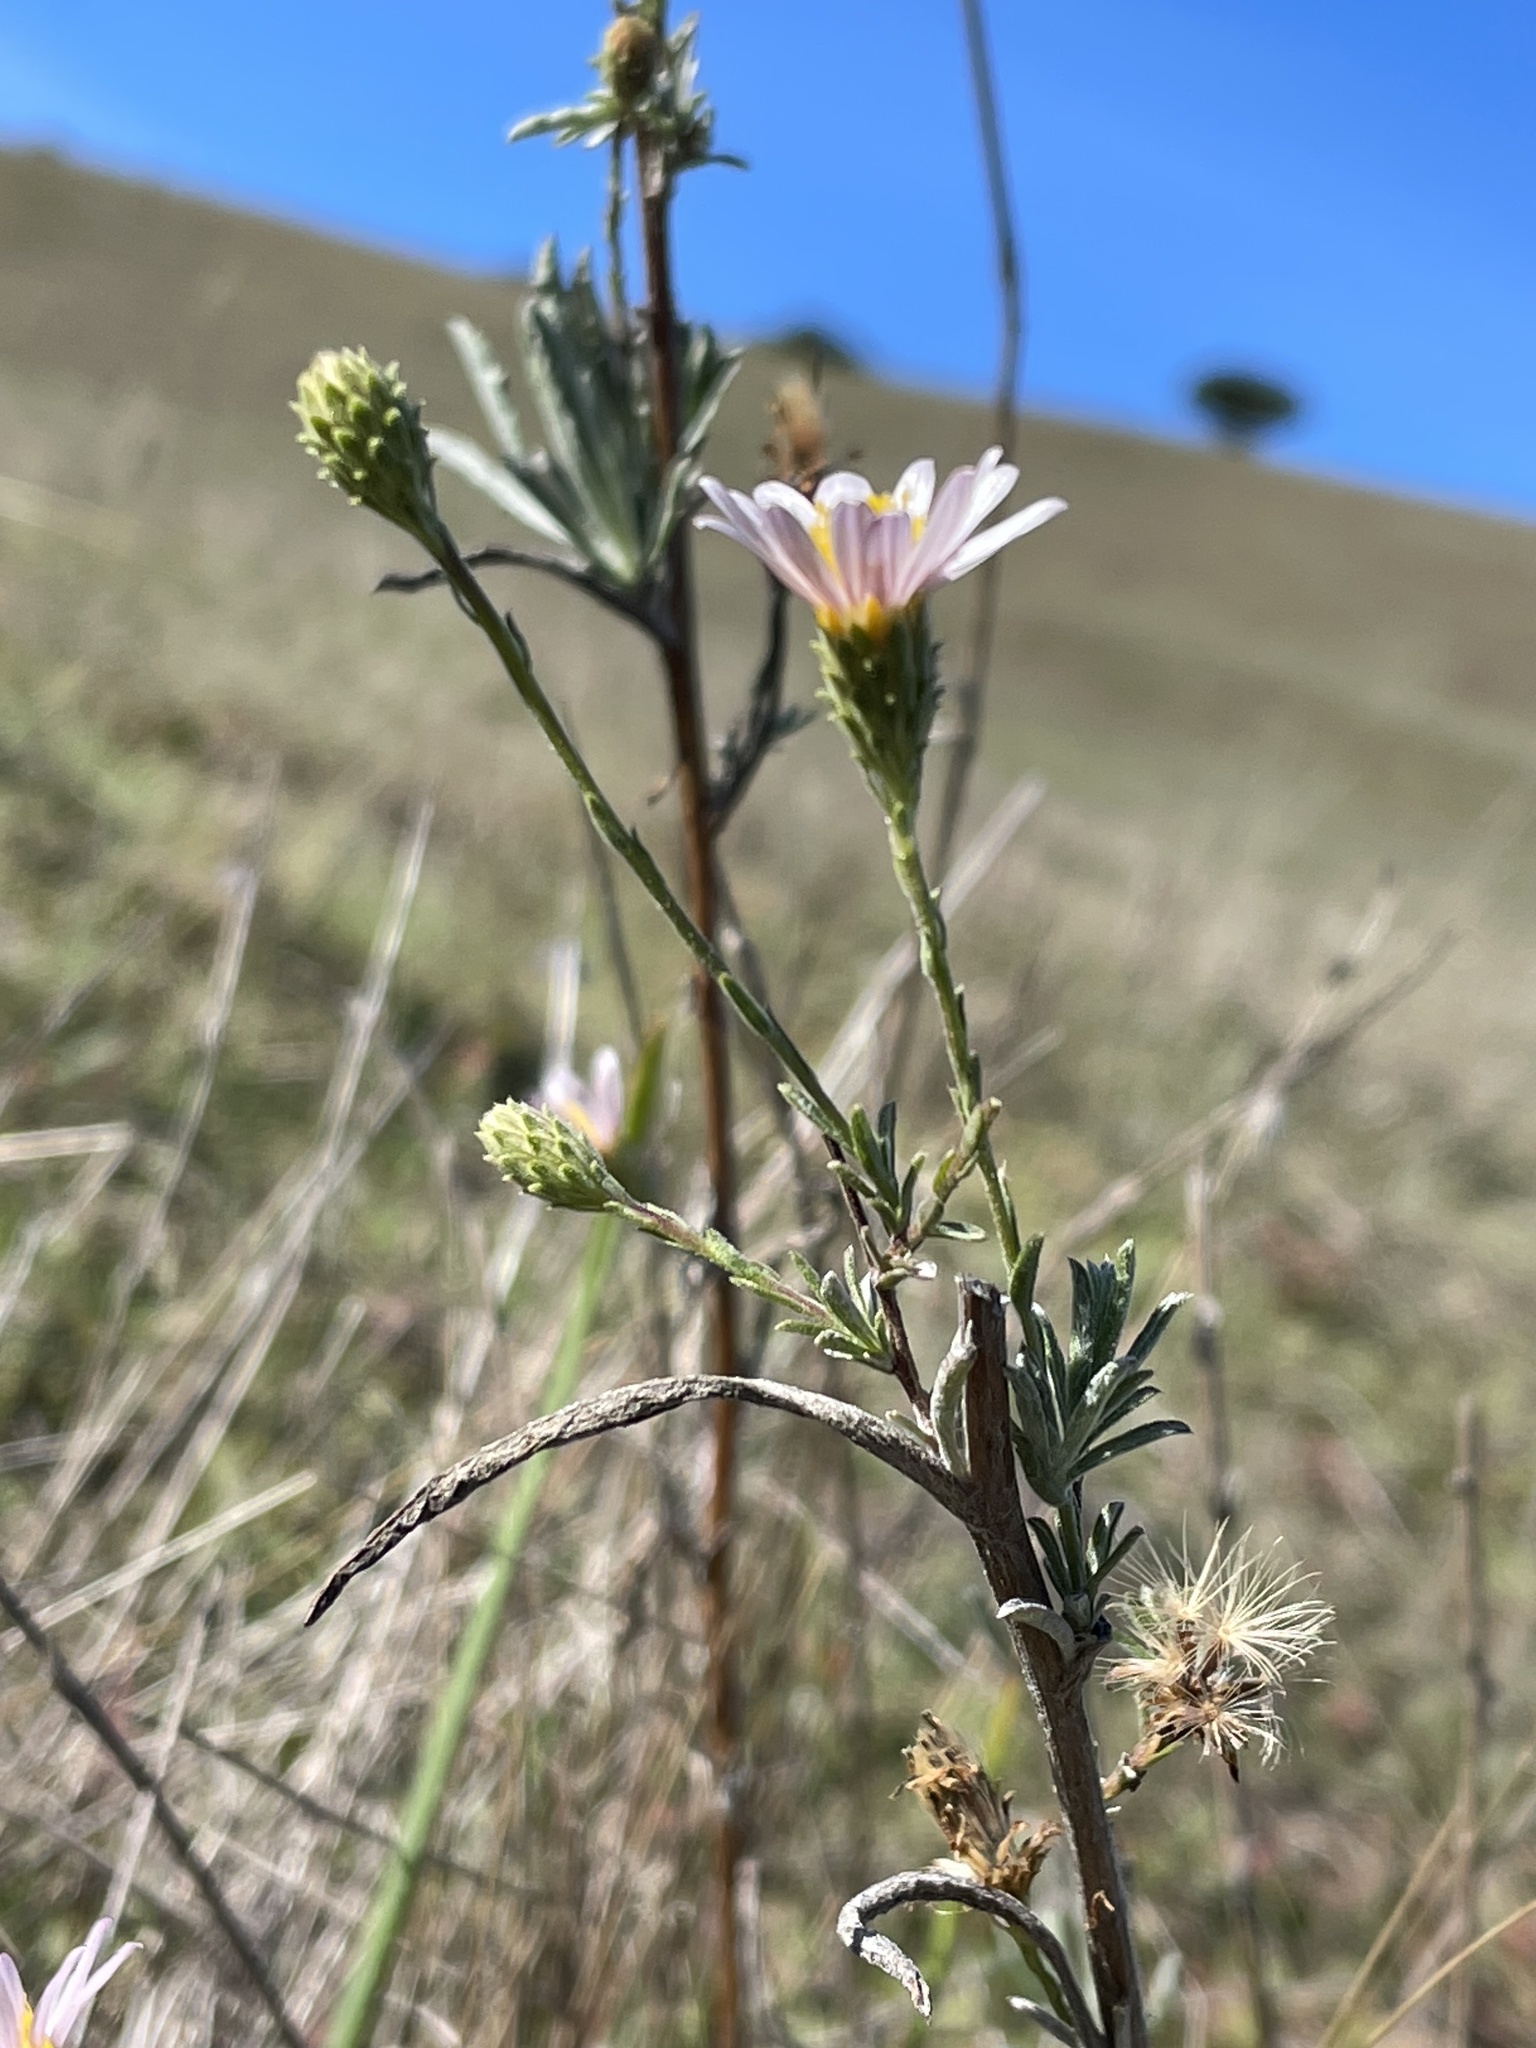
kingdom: Plantae
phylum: Tracheophyta
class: Magnoliopsida
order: Asterales
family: Asteraceae
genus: Corethrogyne
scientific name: Corethrogyne filaginifolia
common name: Sand-aster
